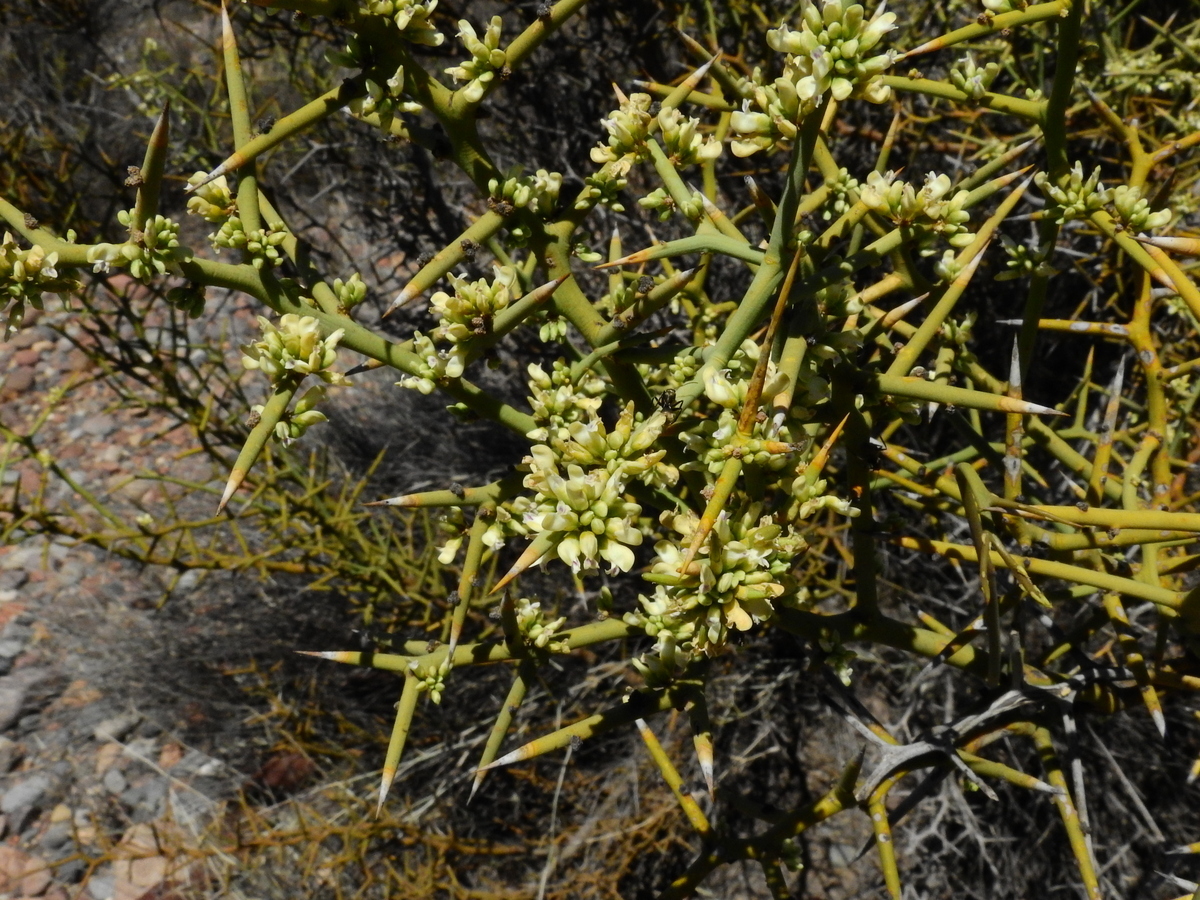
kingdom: Plantae
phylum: Tracheophyta
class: Magnoliopsida
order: Fabales
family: Polygalaceae
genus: Bredemeyera
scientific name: Bredemeyera colletioides
